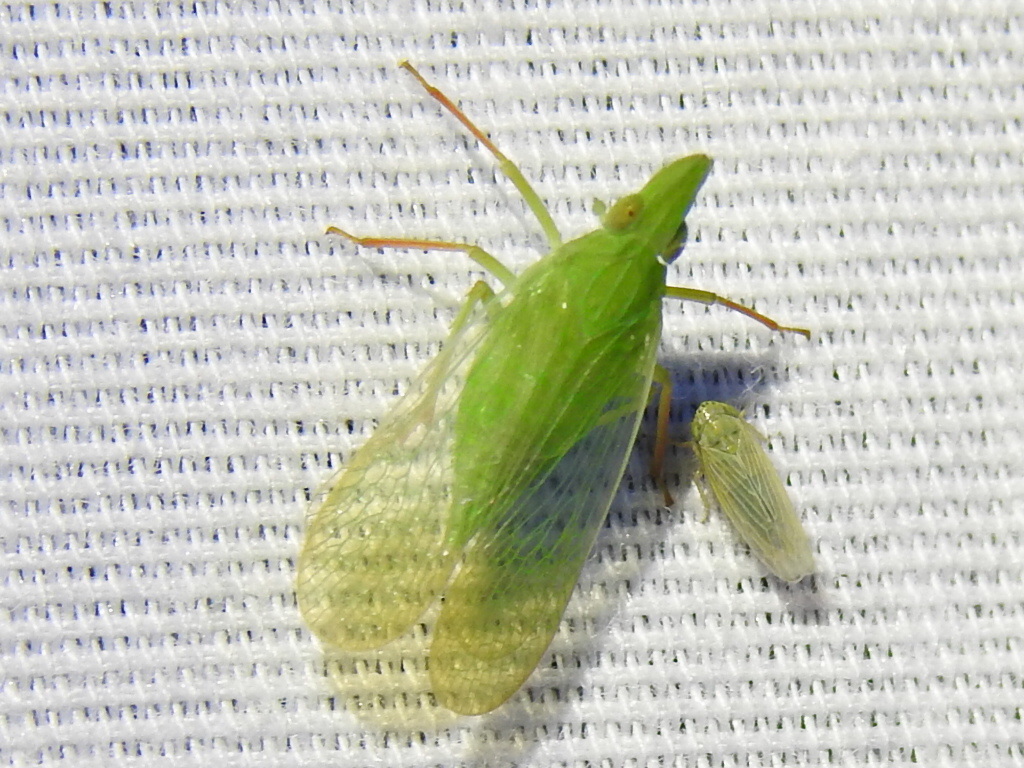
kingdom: Animalia
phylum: Arthropoda
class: Insecta
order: Hemiptera
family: Dictyopharidae
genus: Rhynchomitra
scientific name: Rhynchomitra recurva
